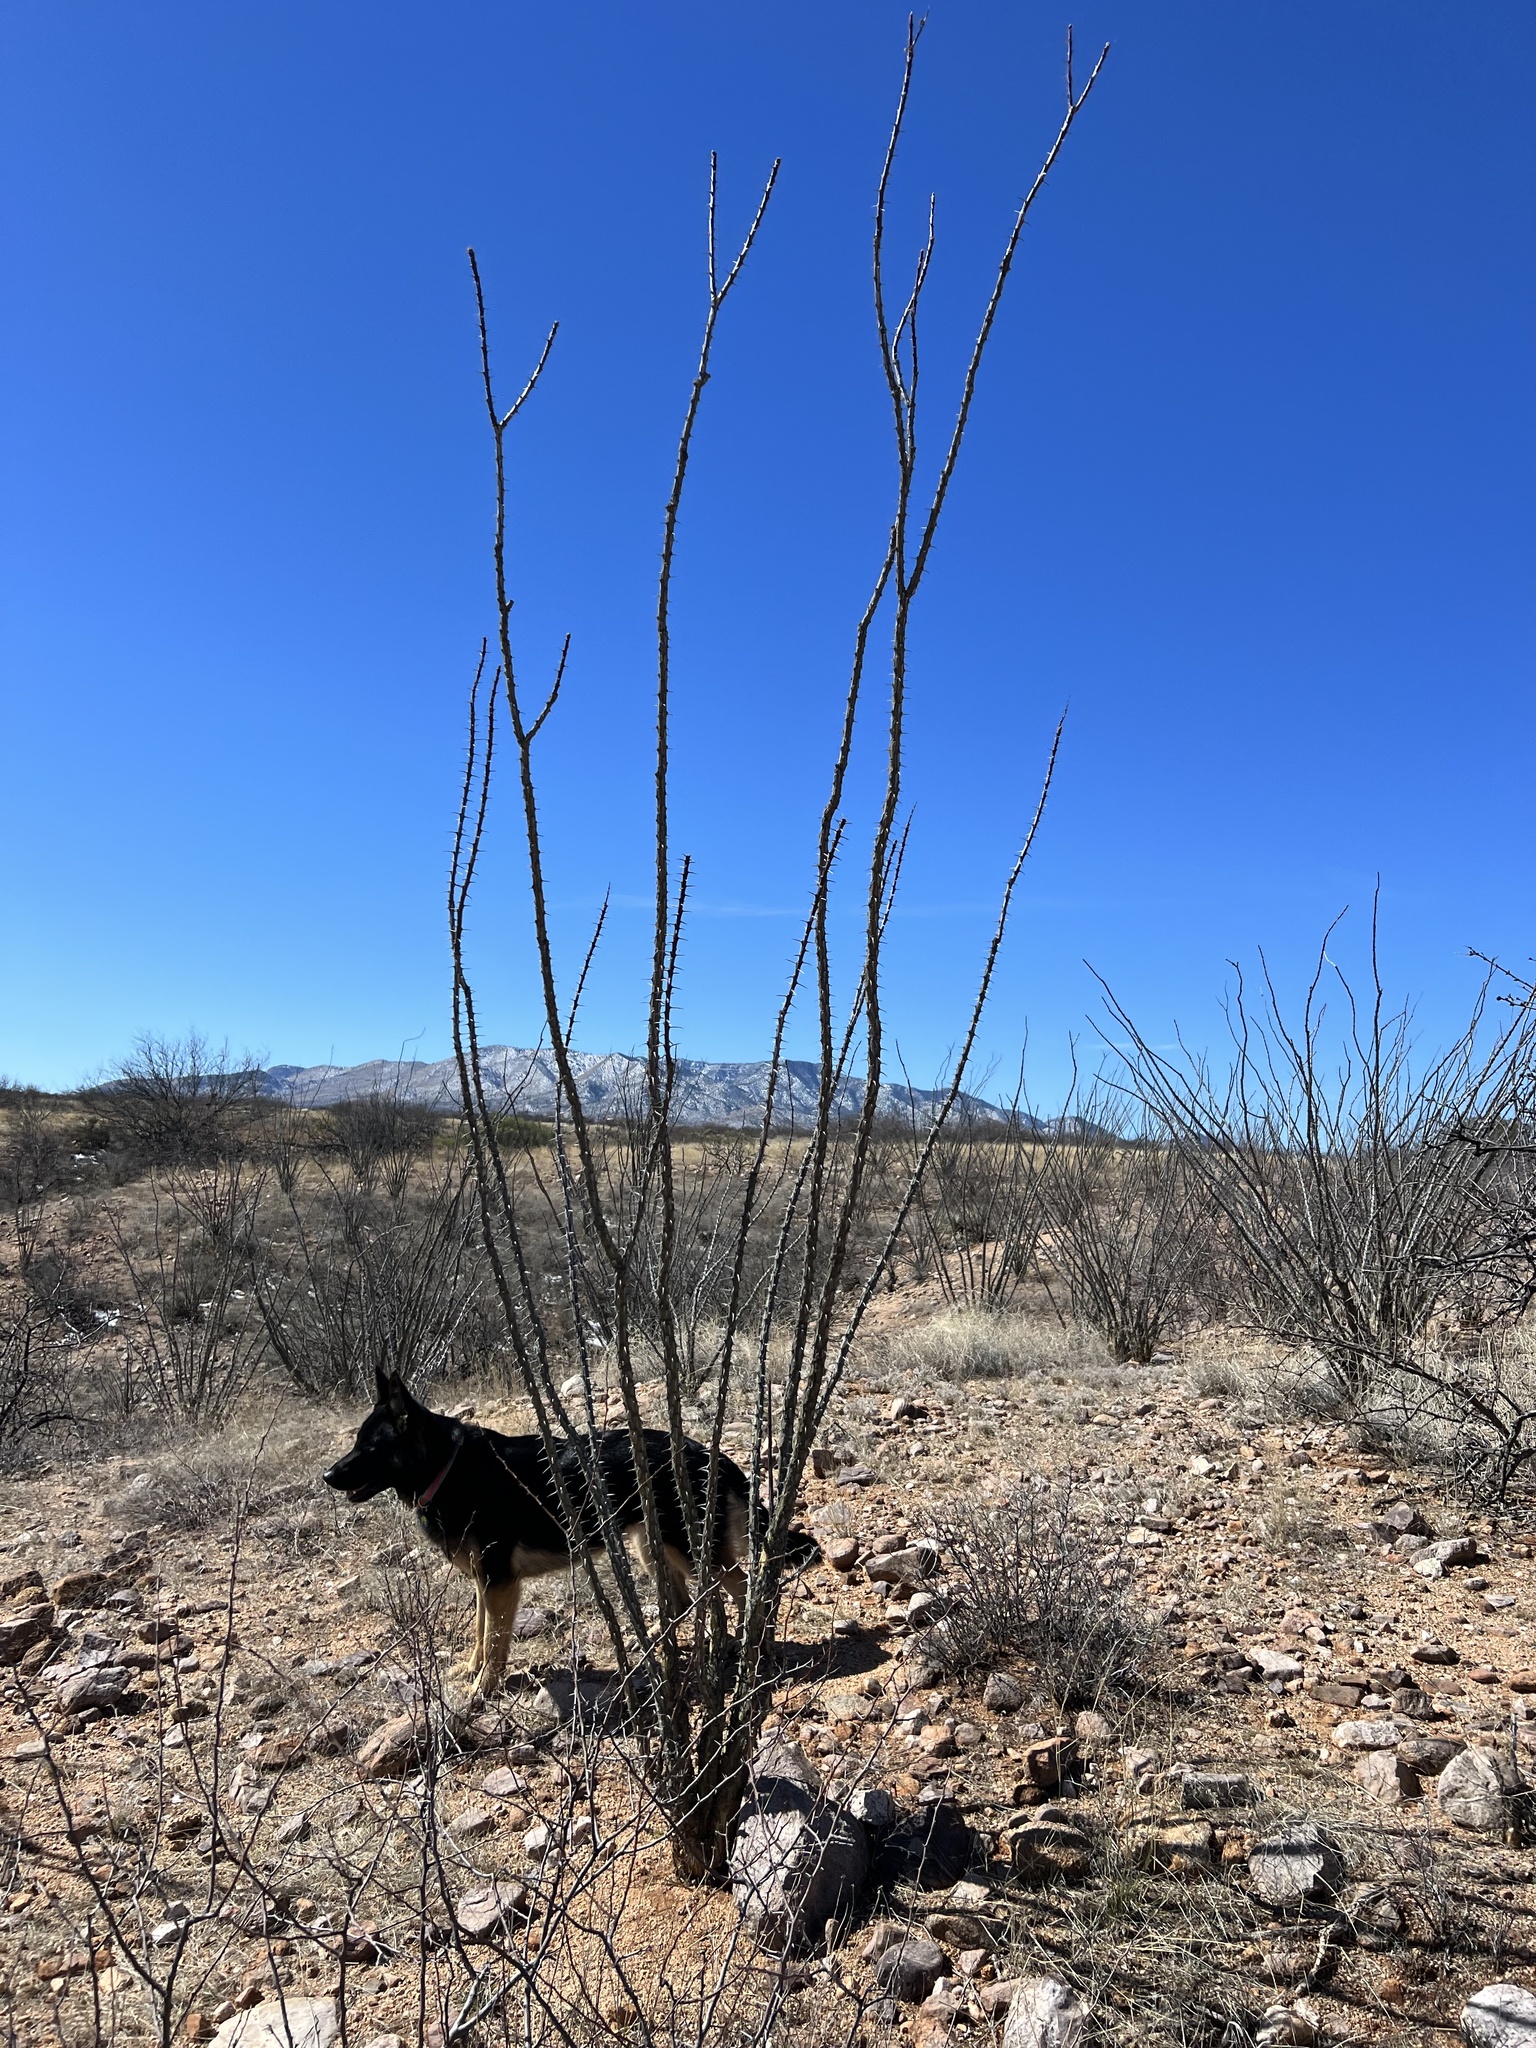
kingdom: Plantae
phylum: Tracheophyta
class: Magnoliopsida
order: Ericales
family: Fouquieriaceae
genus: Fouquieria
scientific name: Fouquieria splendens
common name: Vine-cactus
